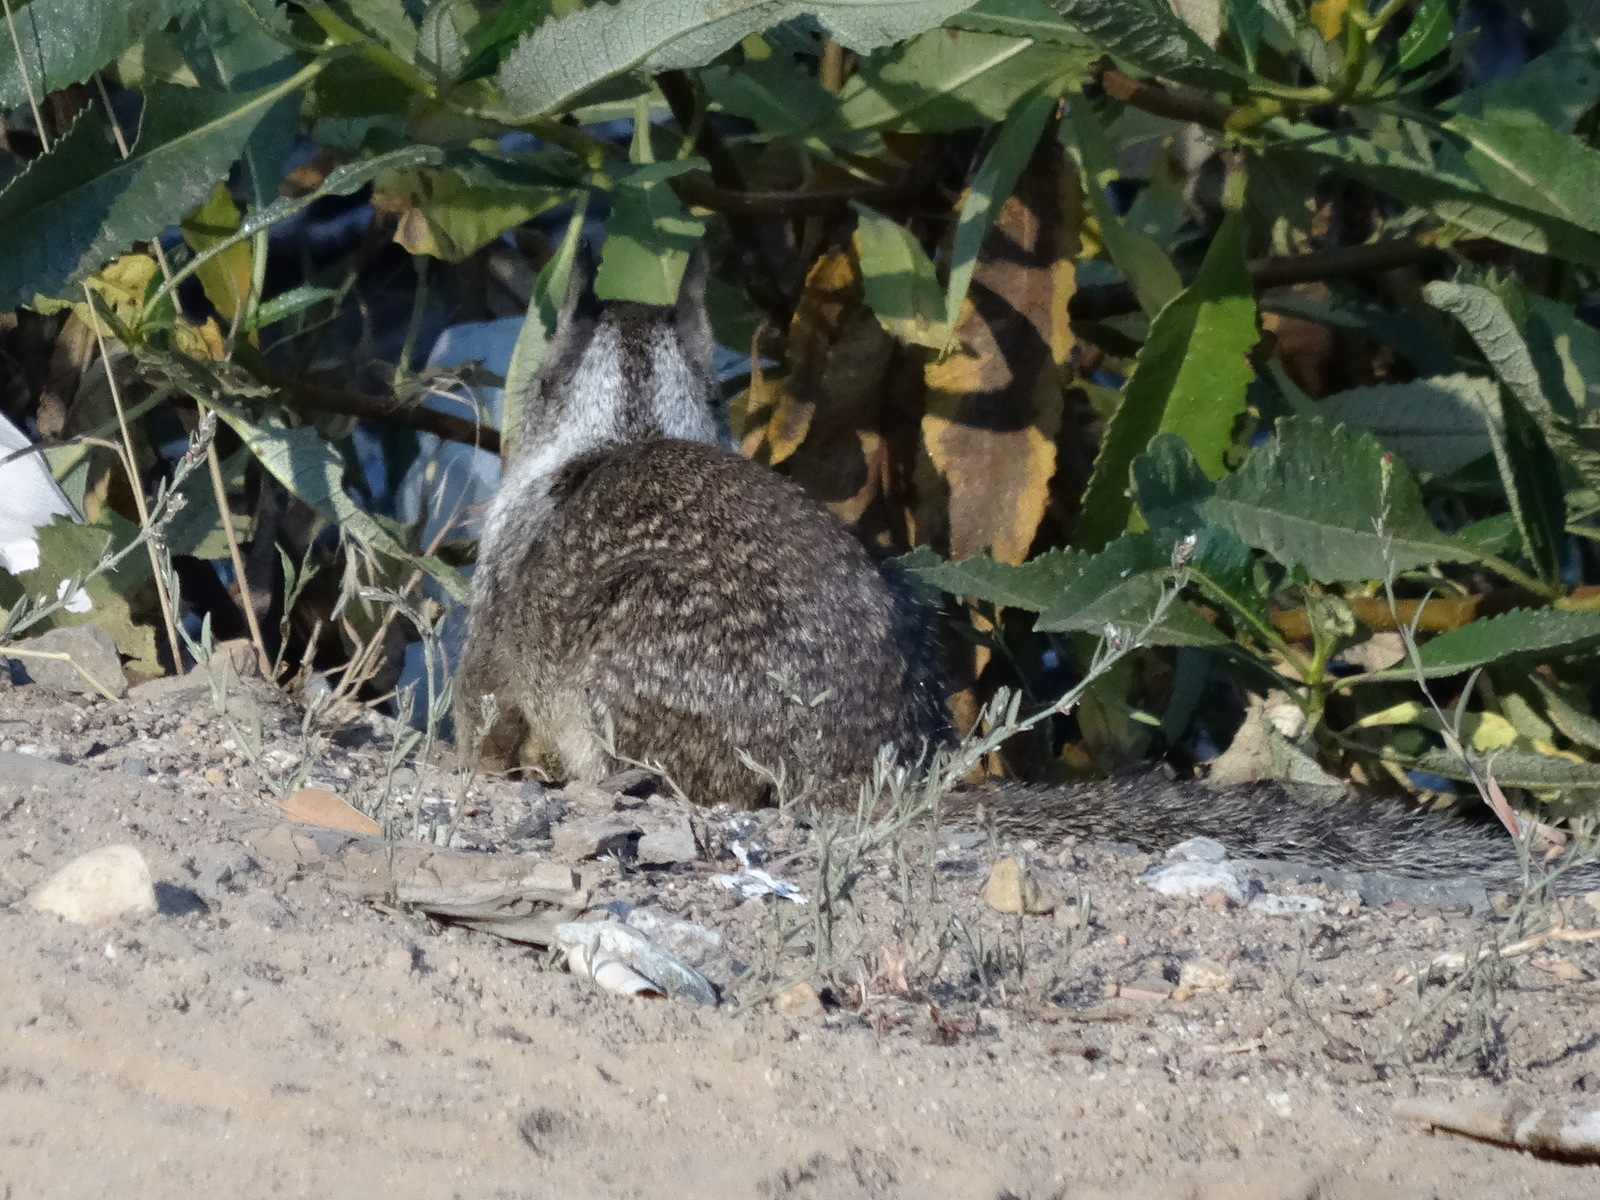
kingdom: Animalia
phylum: Chordata
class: Mammalia
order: Rodentia
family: Sciuridae
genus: Otospermophilus
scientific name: Otospermophilus beecheyi
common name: California ground squirrel
